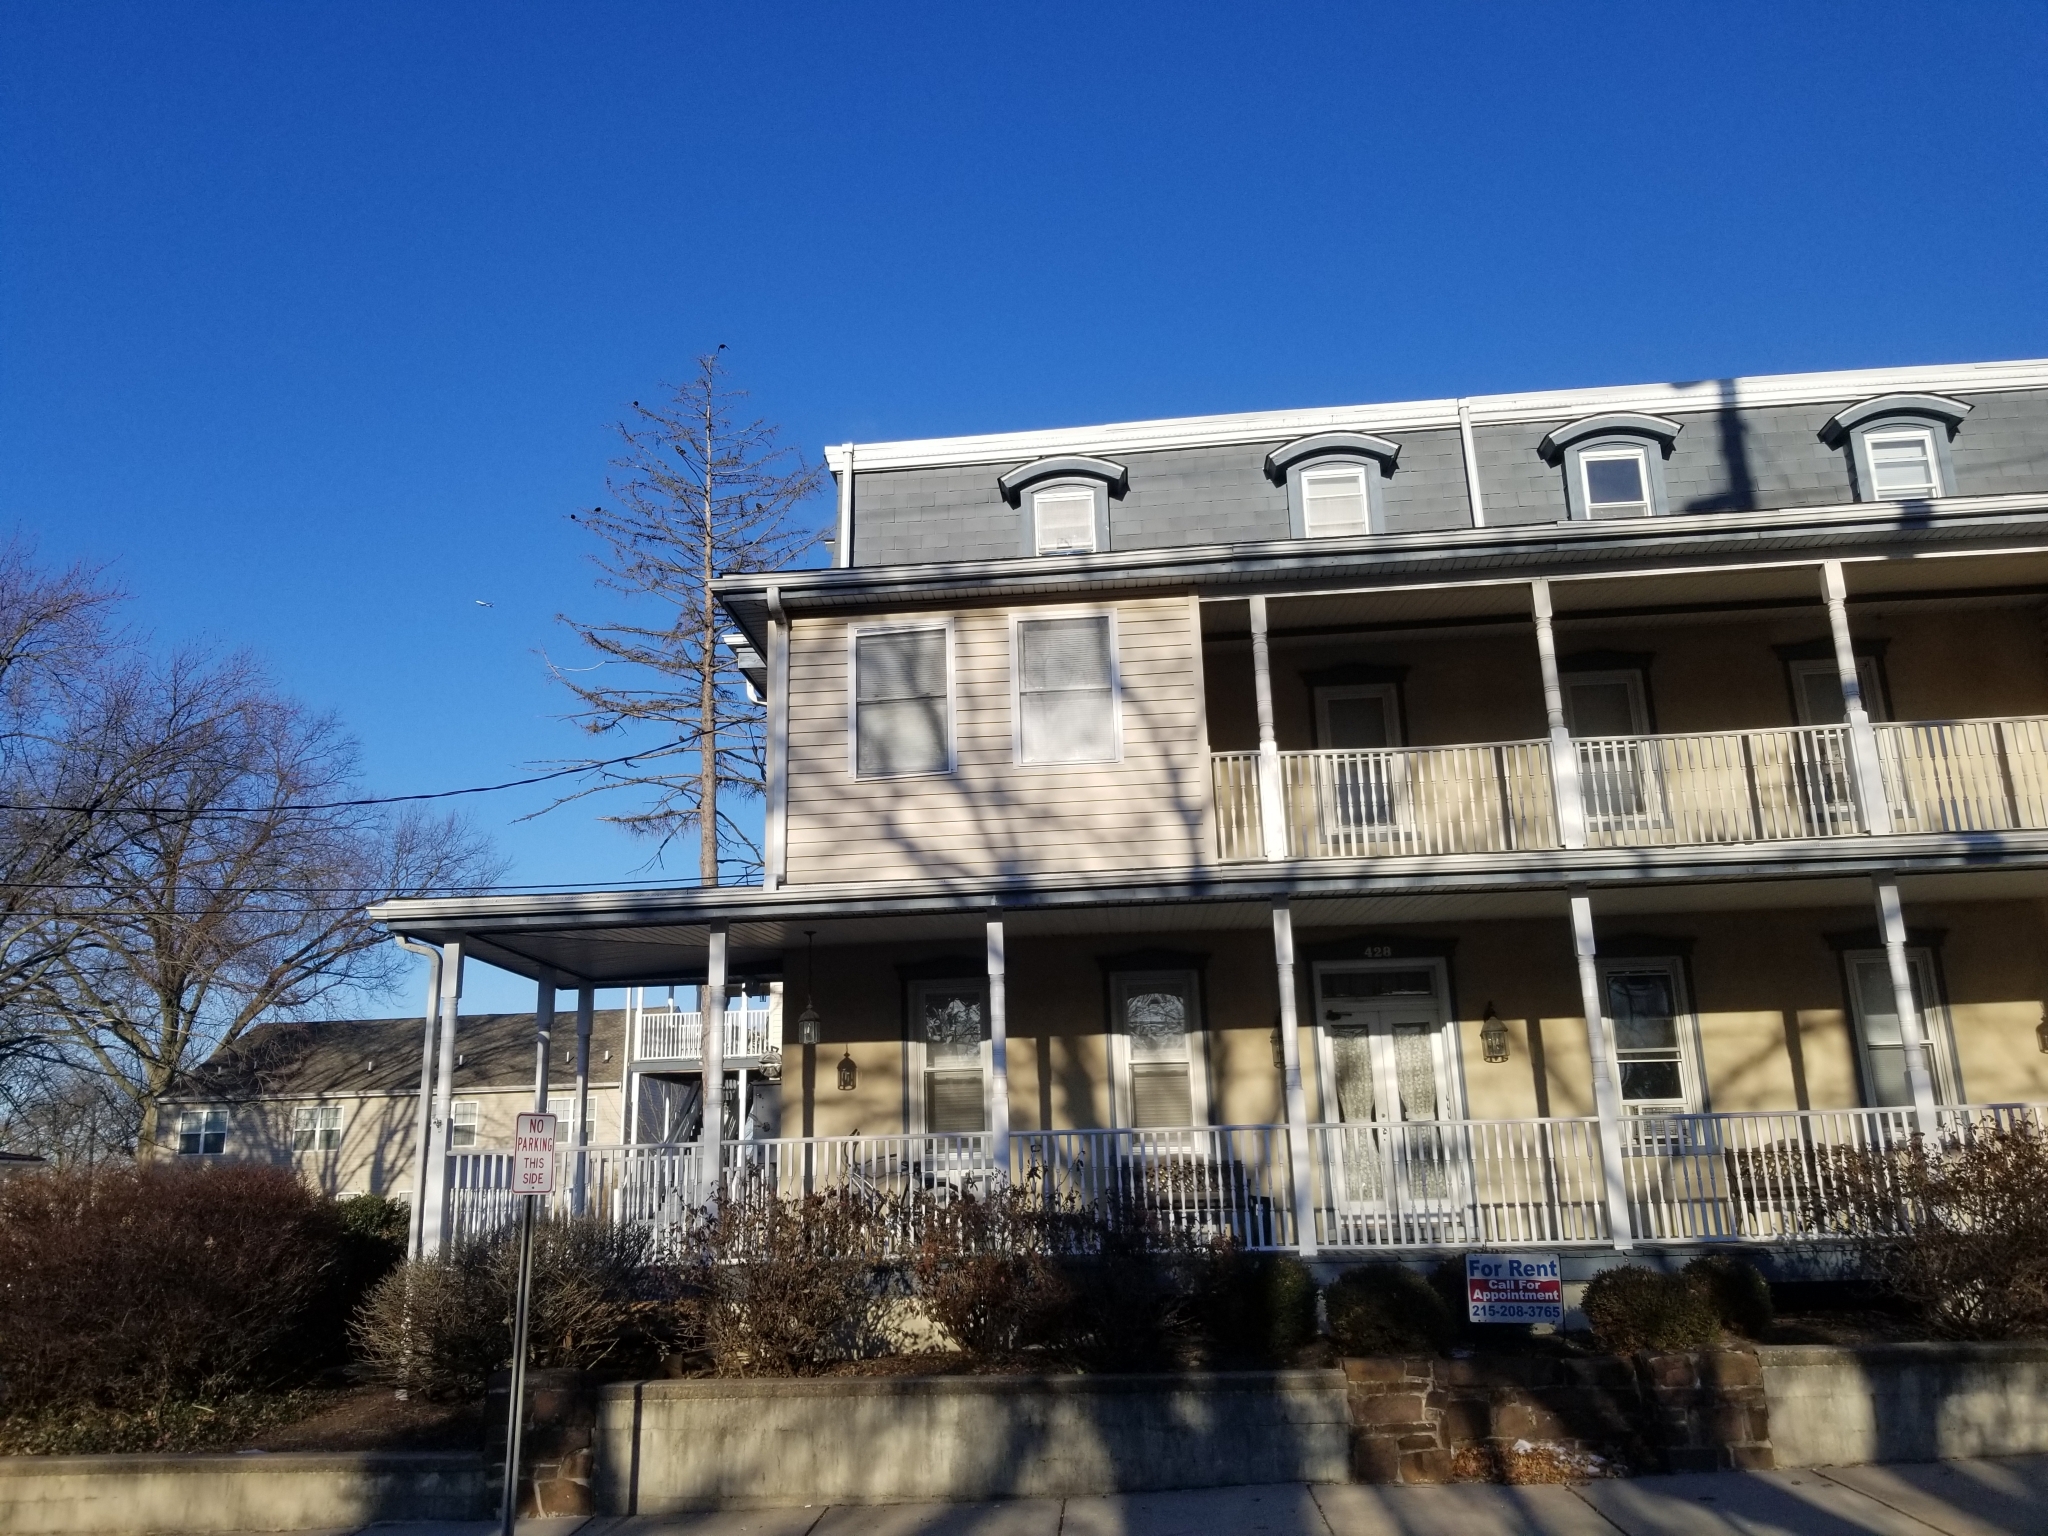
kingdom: Animalia
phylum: Chordata
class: Aves
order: Passeriformes
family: Sturnidae
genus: Sturnus
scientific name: Sturnus vulgaris
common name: Common starling
